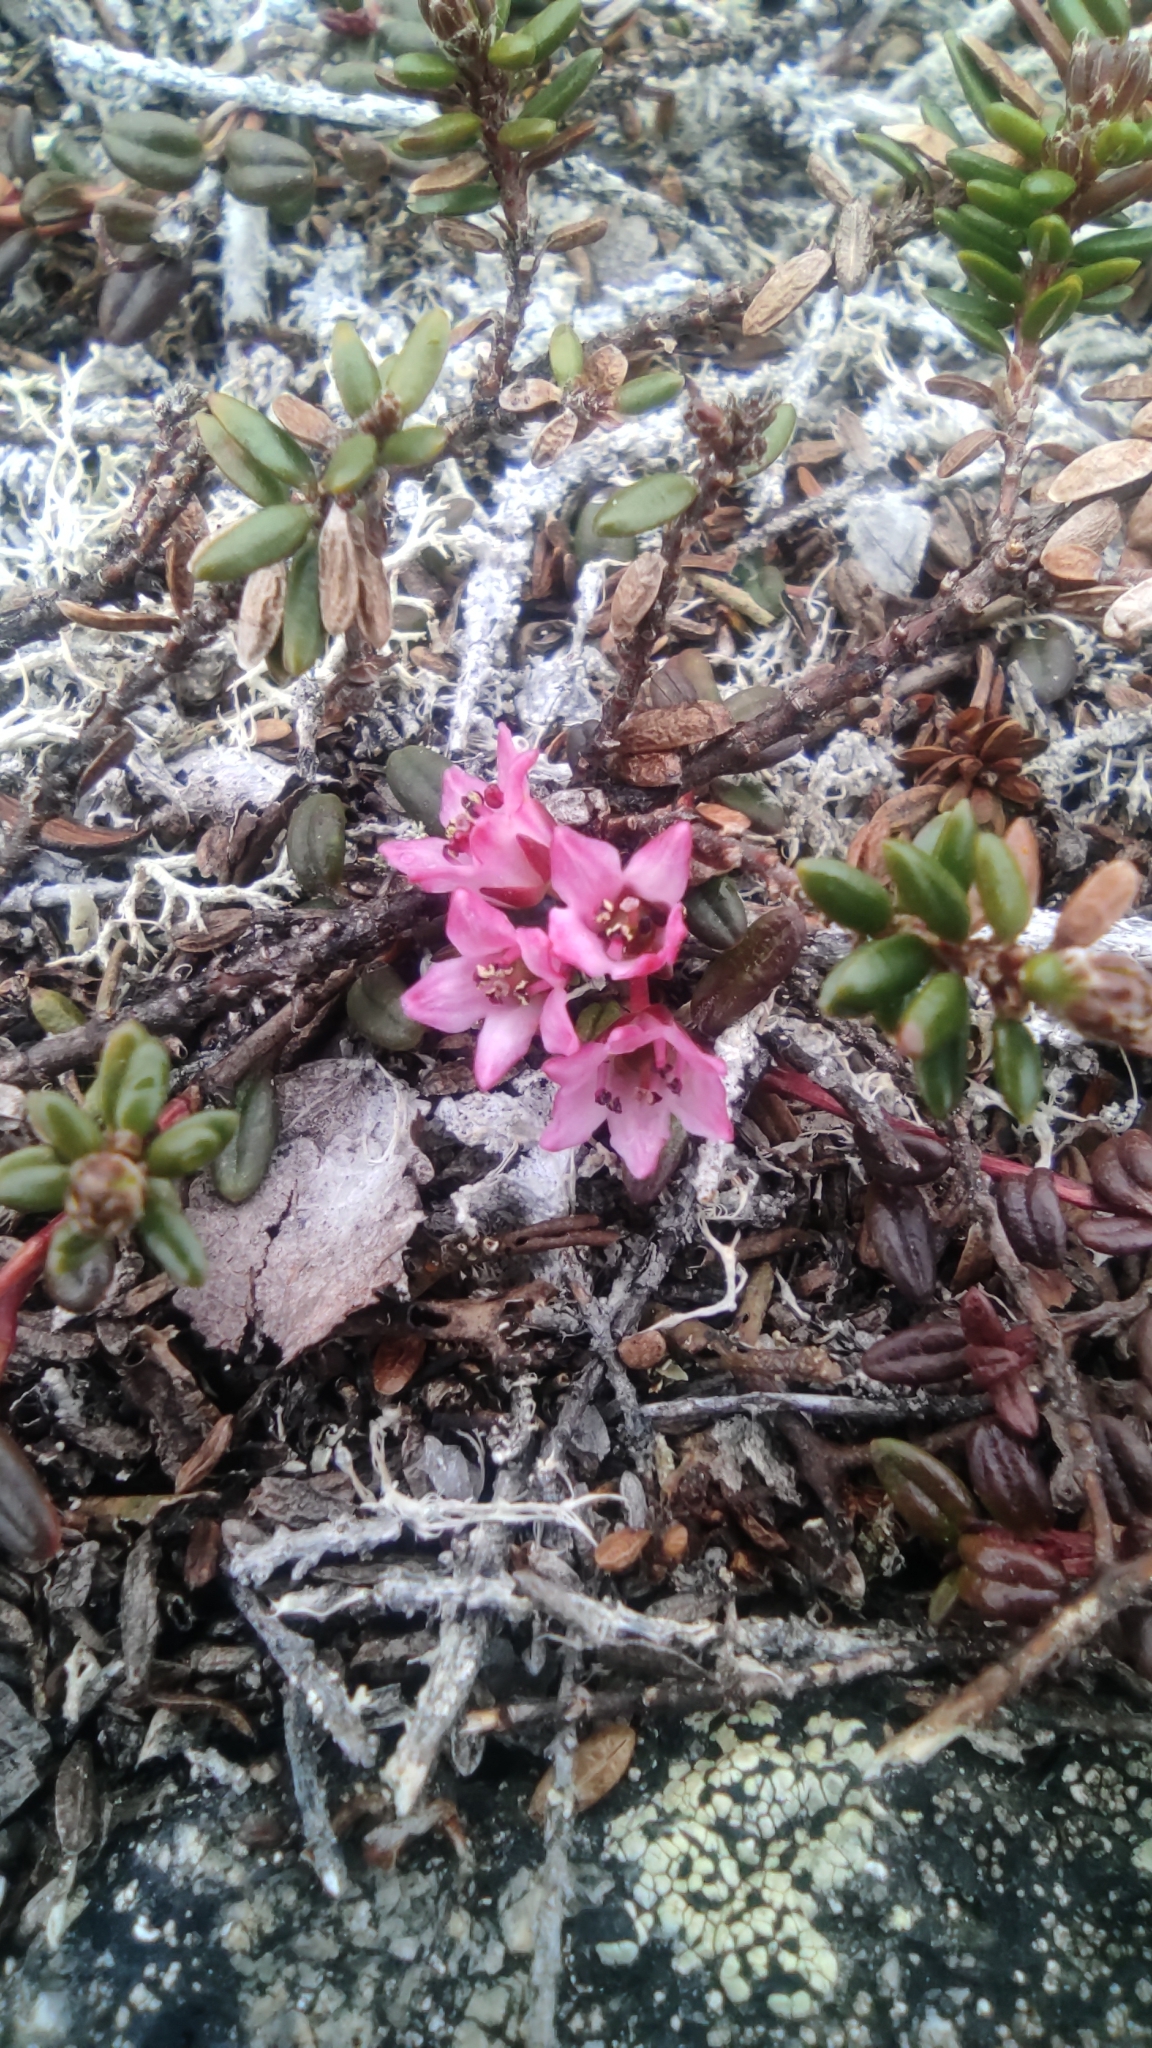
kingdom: Plantae
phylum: Tracheophyta
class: Magnoliopsida
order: Ericales
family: Ericaceae
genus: Kalmia
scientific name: Kalmia procumbens
